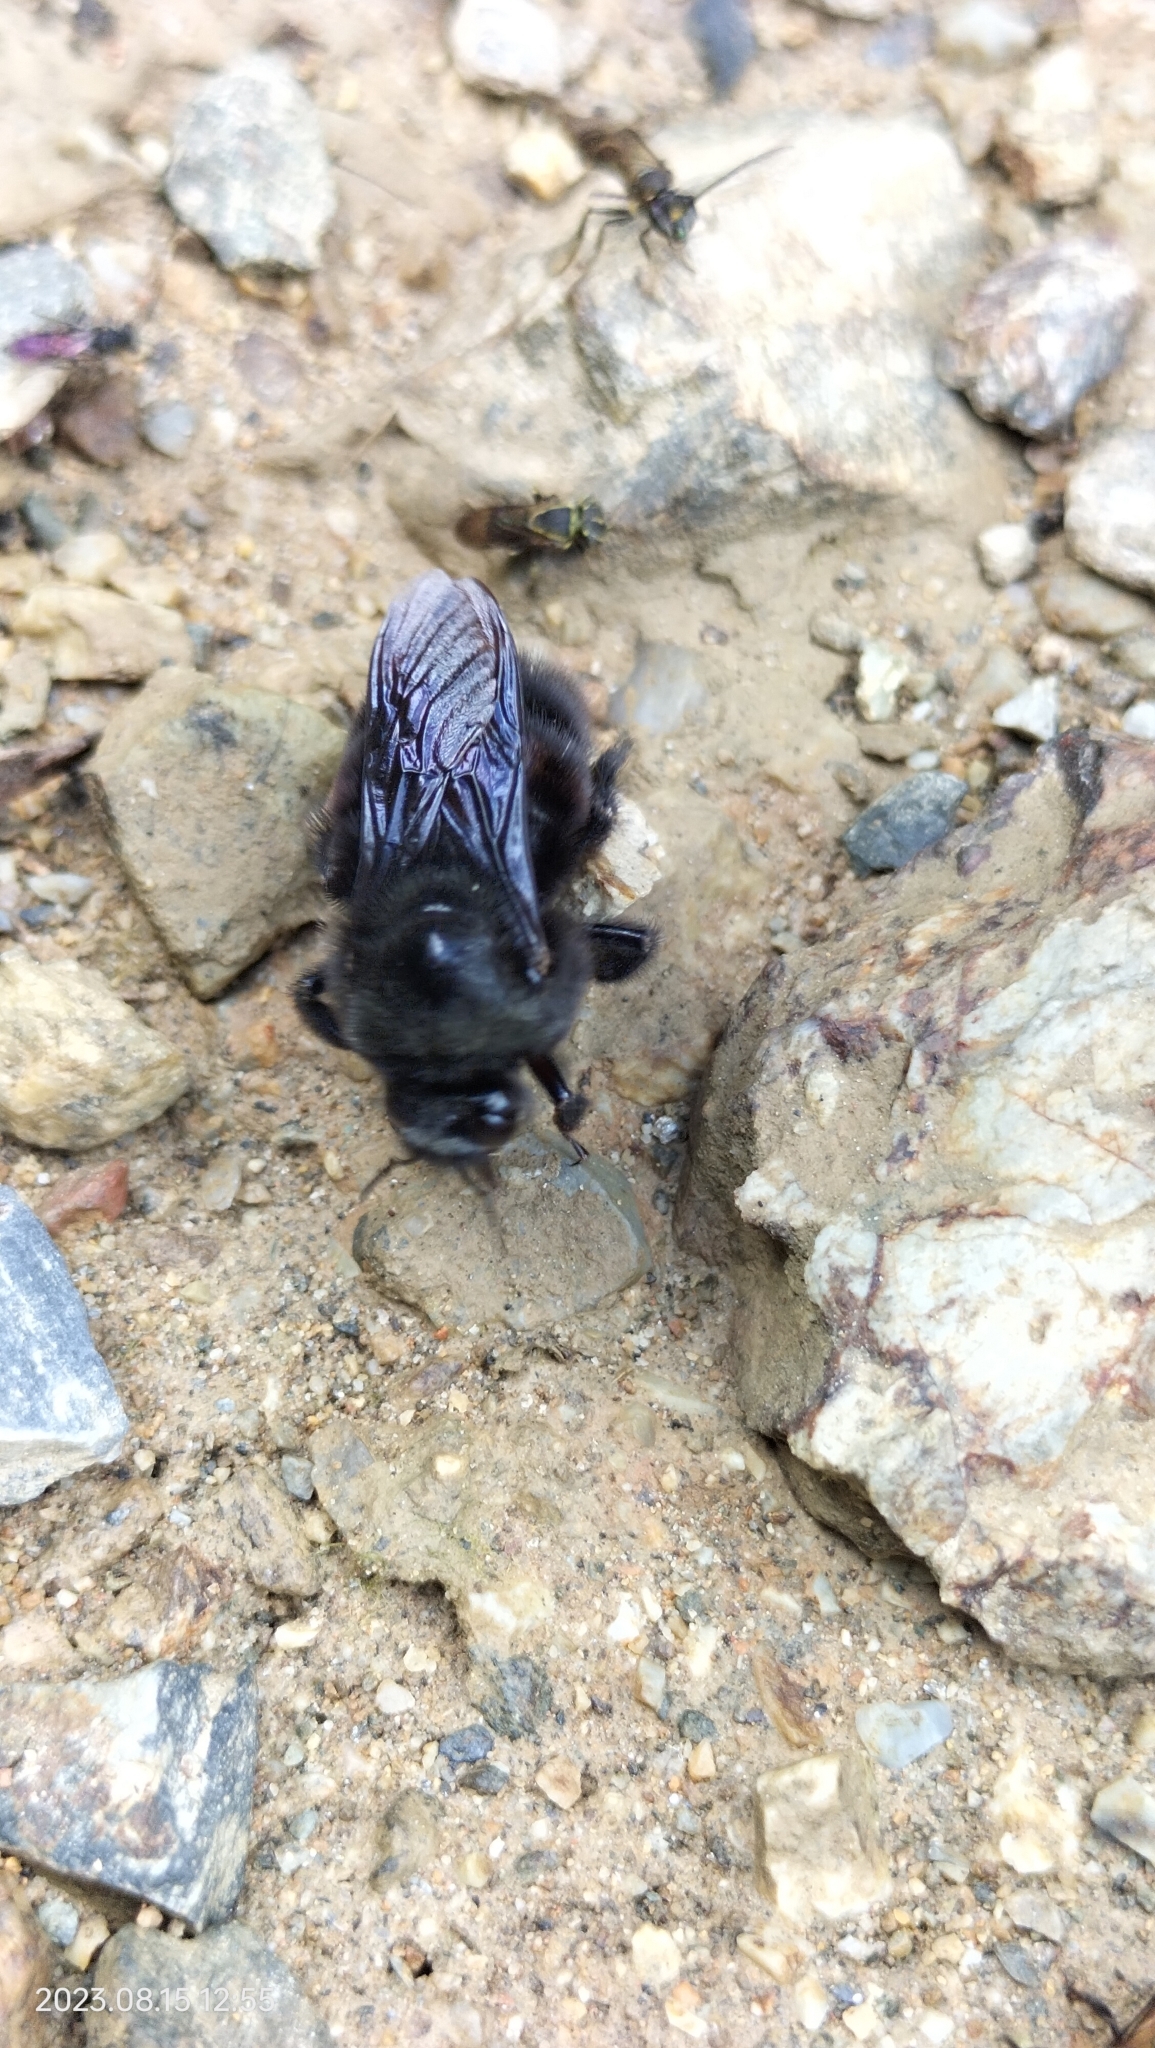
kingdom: Animalia
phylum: Arthropoda
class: Insecta
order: Hymenoptera
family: Apidae
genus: Bombus
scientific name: Bombus melaleucus
